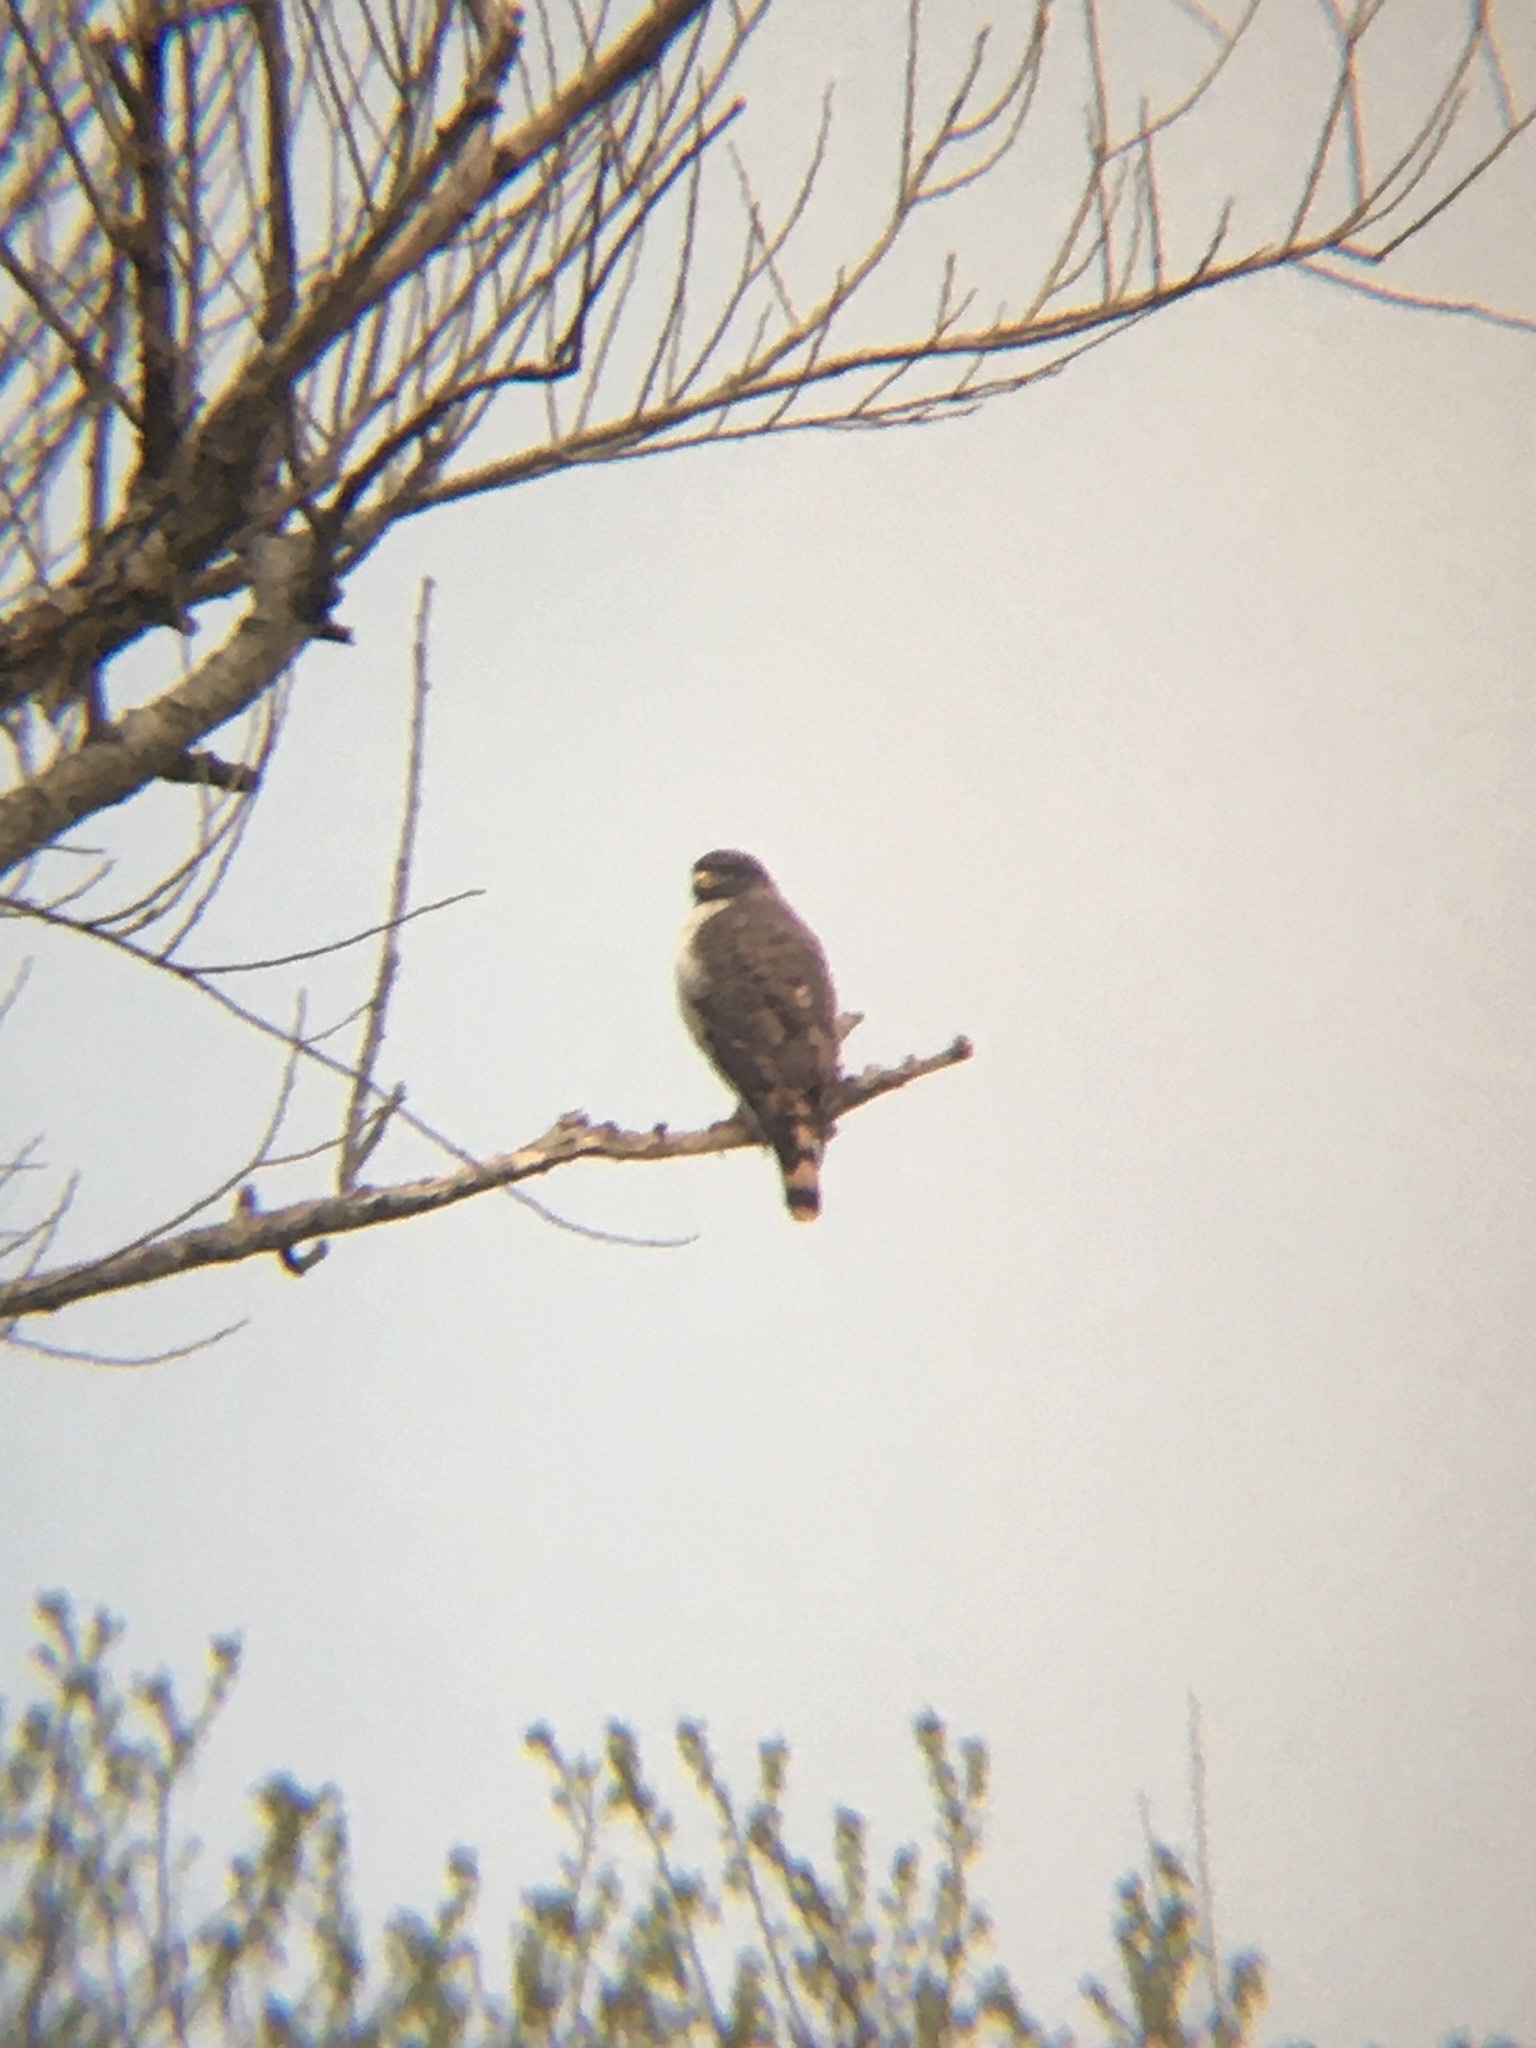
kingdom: Animalia
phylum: Chordata
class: Aves
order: Accipitriformes
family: Accipitridae
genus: Rupornis
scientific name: Rupornis magnirostris
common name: Roadside hawk
